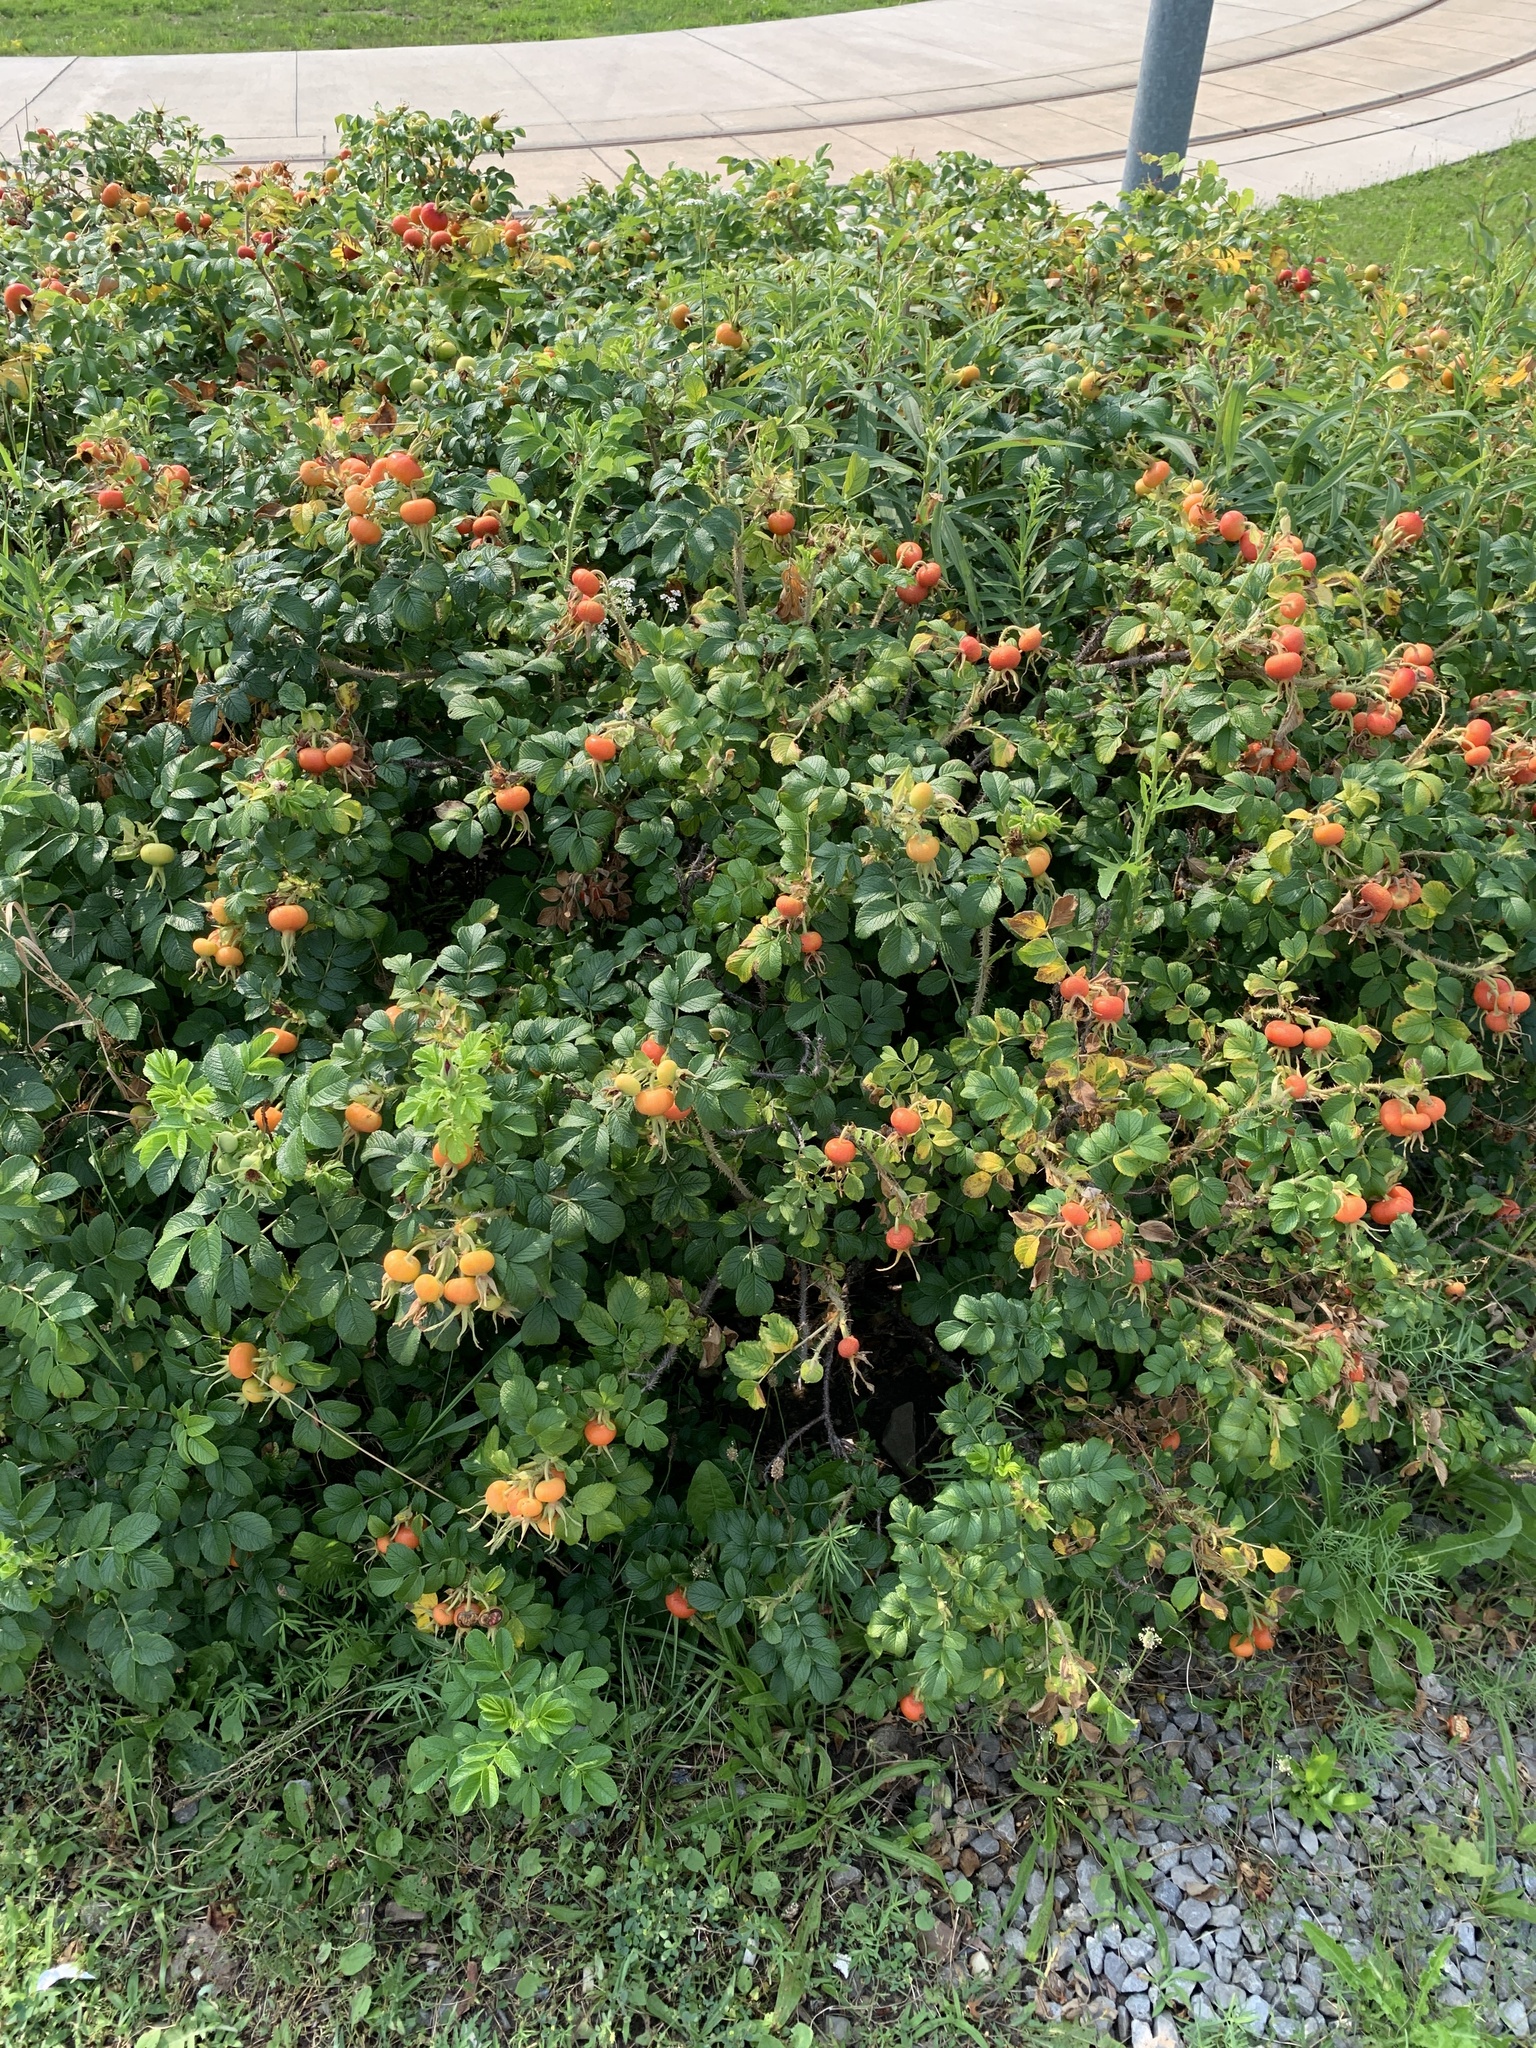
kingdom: Plantae
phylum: Tracheophyta
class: Magnoliopsida
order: Rosales
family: Rosaceae
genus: Rosa
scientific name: Rosa rugosa
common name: Japanese rose
